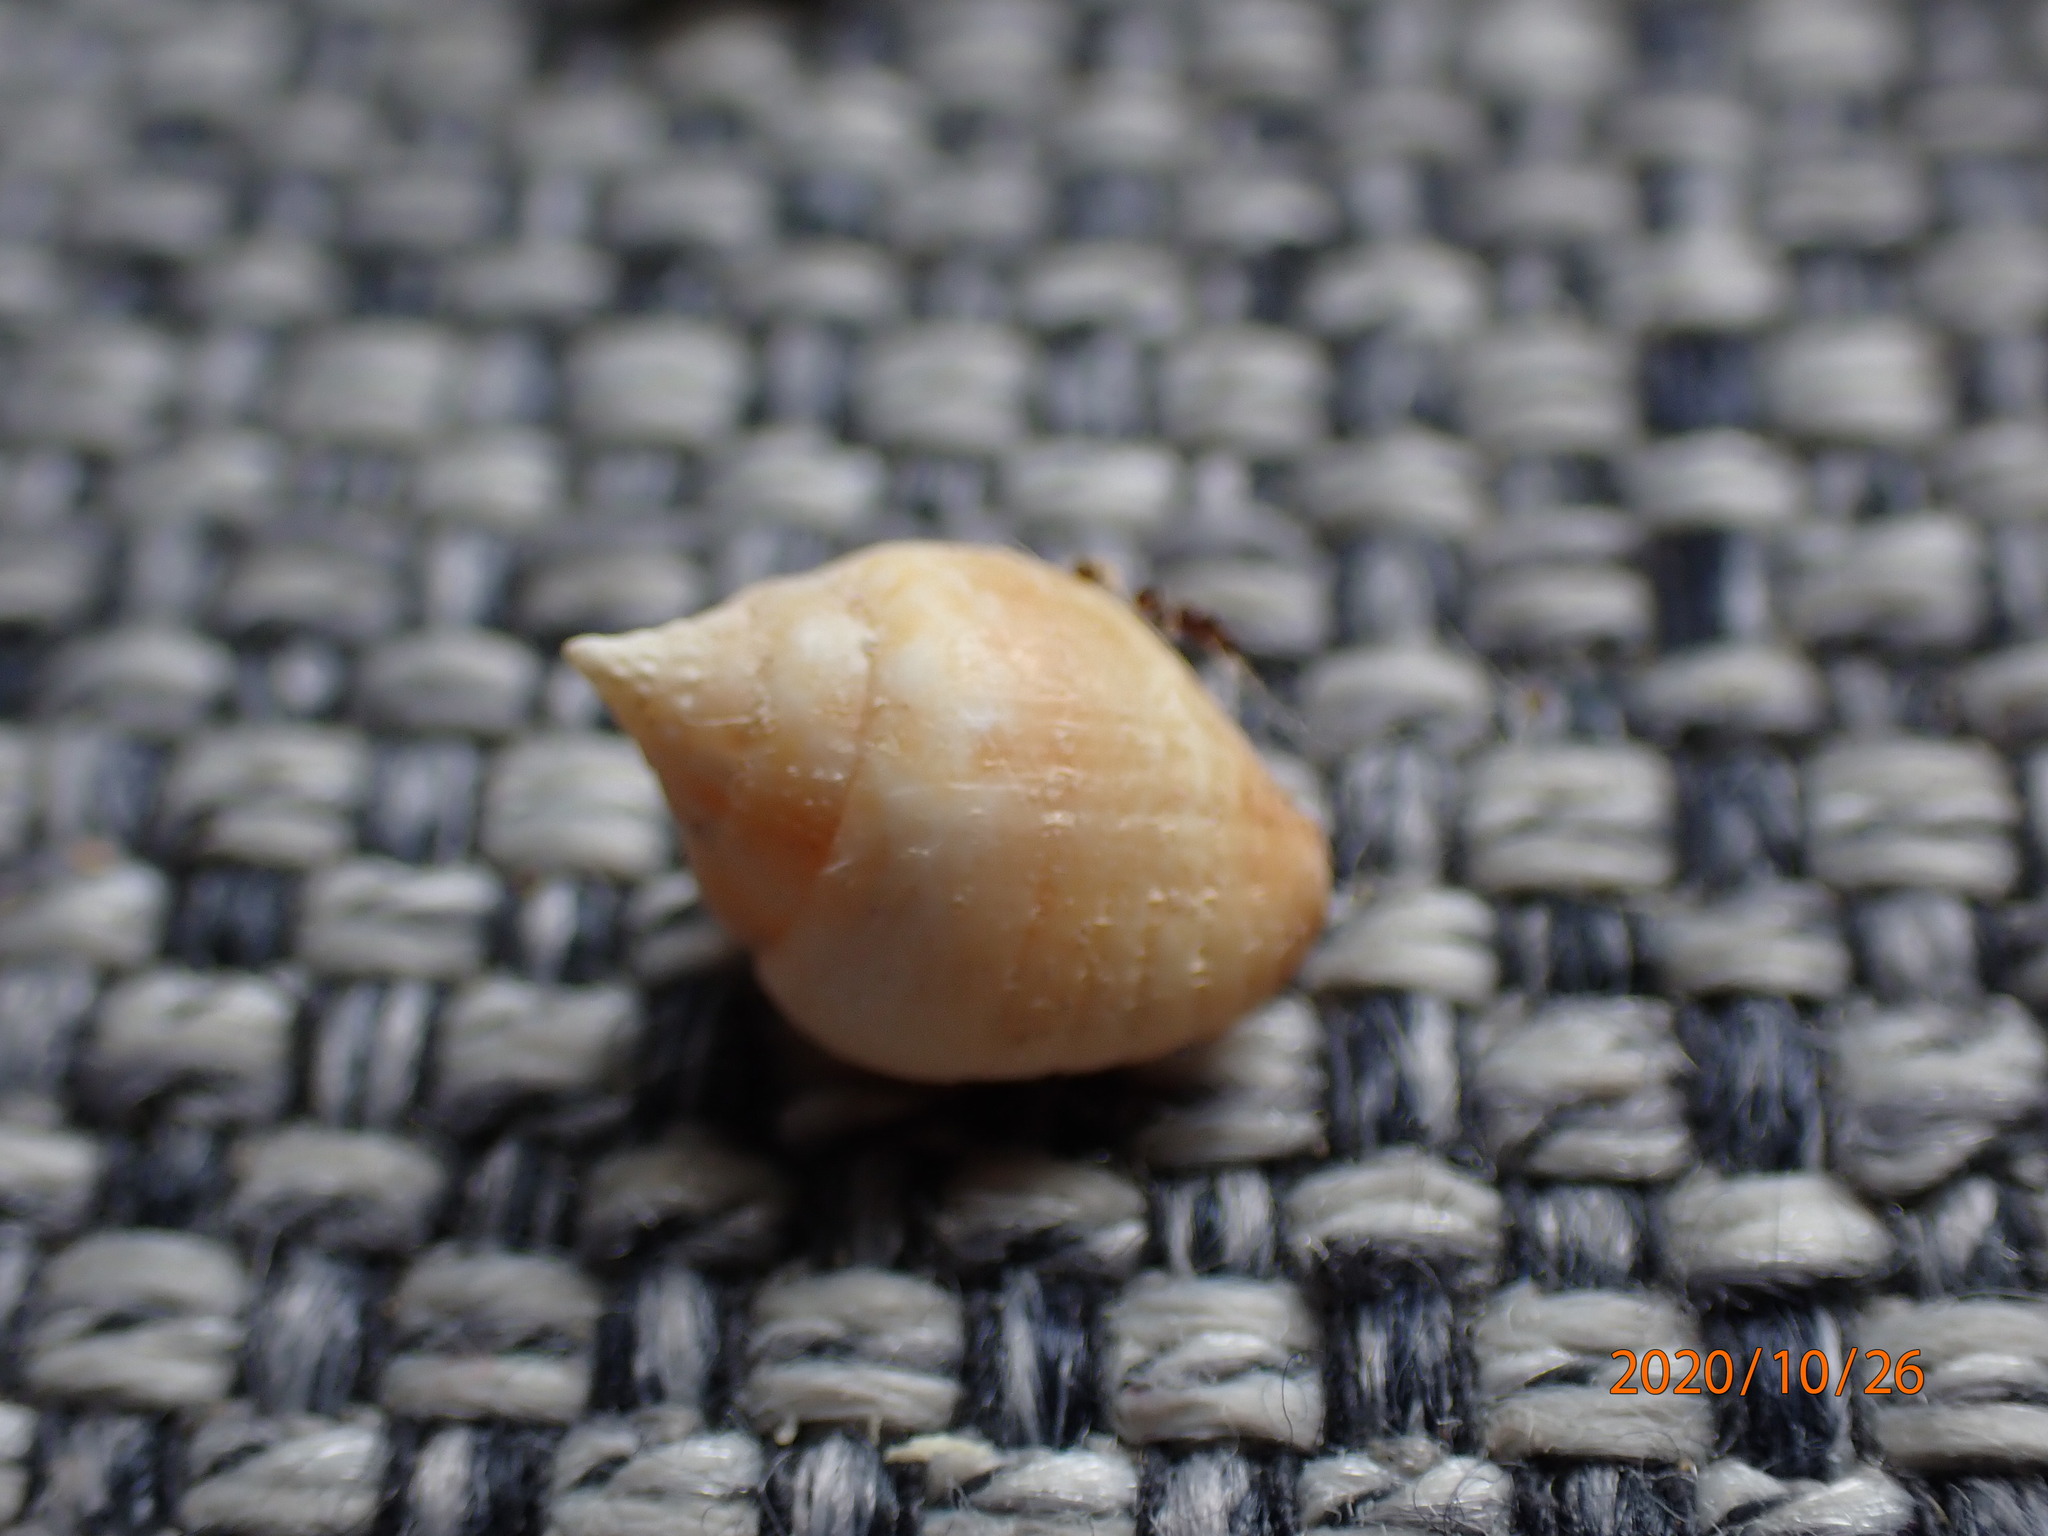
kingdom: Animalia
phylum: Mollusca
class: Gastropoda
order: Neogastropoda
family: Columbellidae
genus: Euplica
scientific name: Euplica deshayesii
